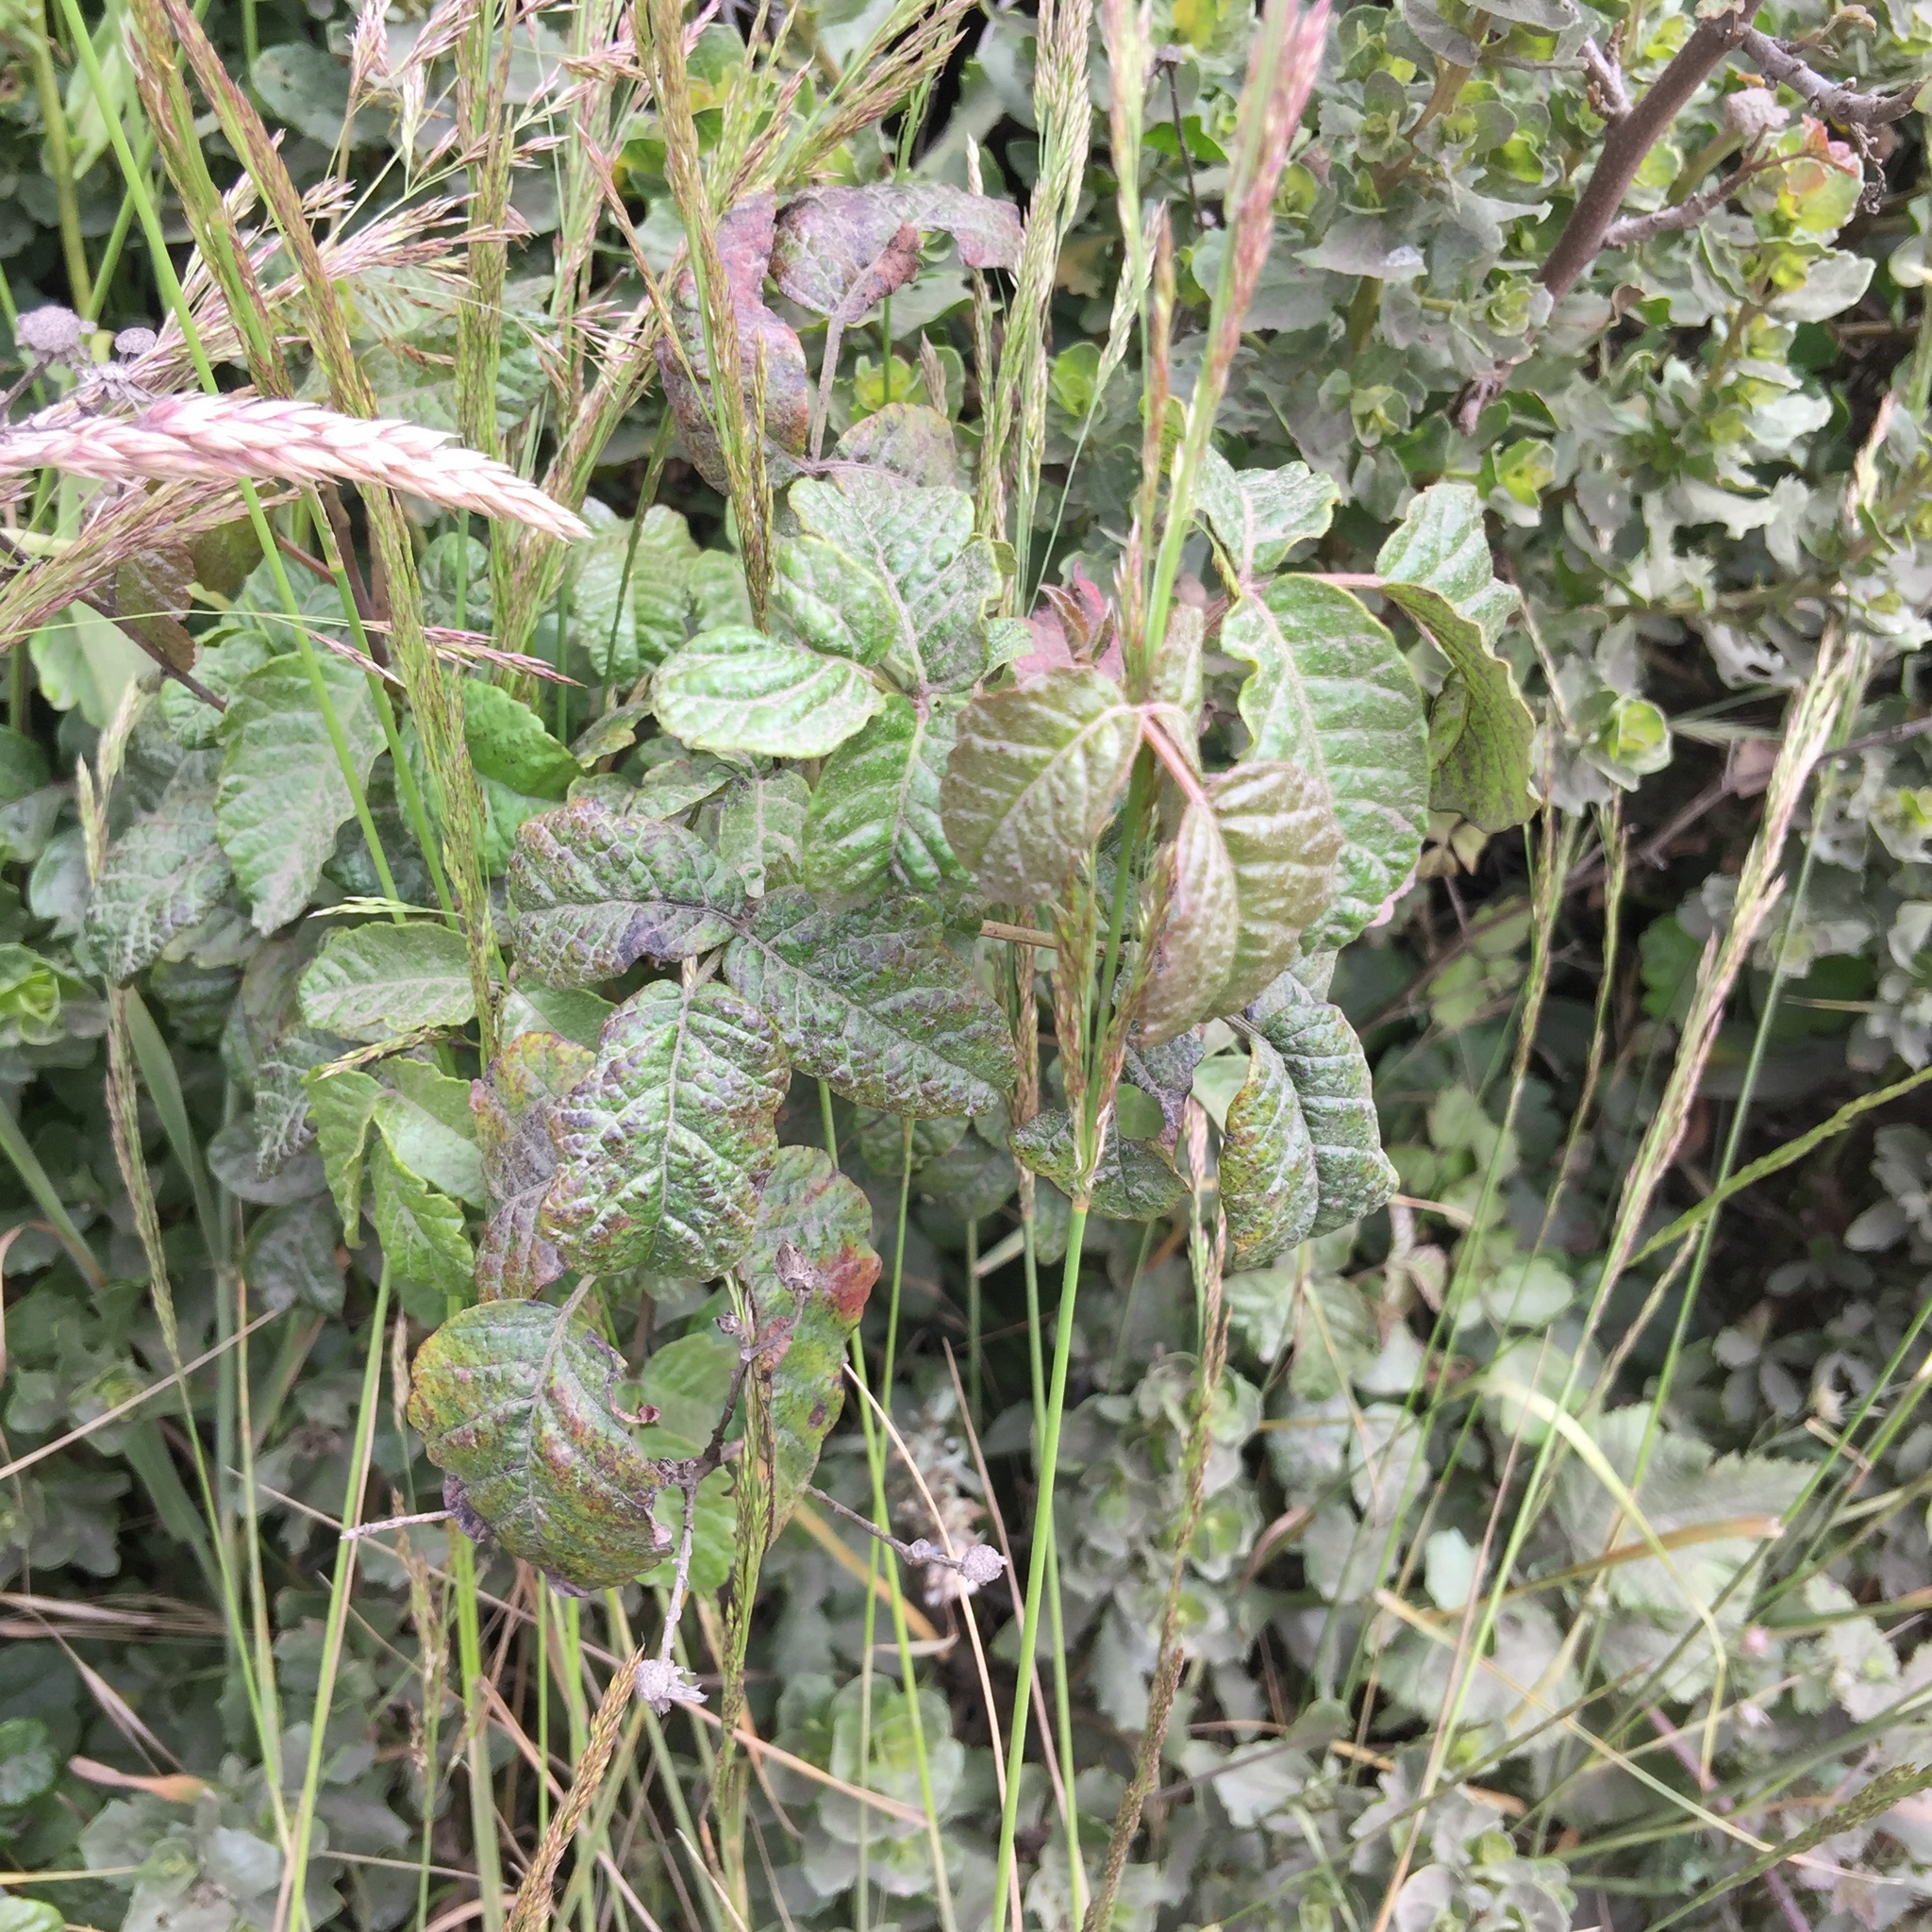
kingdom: Plantae
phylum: Tracheophyta
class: Magnoliopsida
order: Sapindales
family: Anacardiaceae
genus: Toxicodendron
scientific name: Toxicodendron diversilobum
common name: Pacific poison-oak
